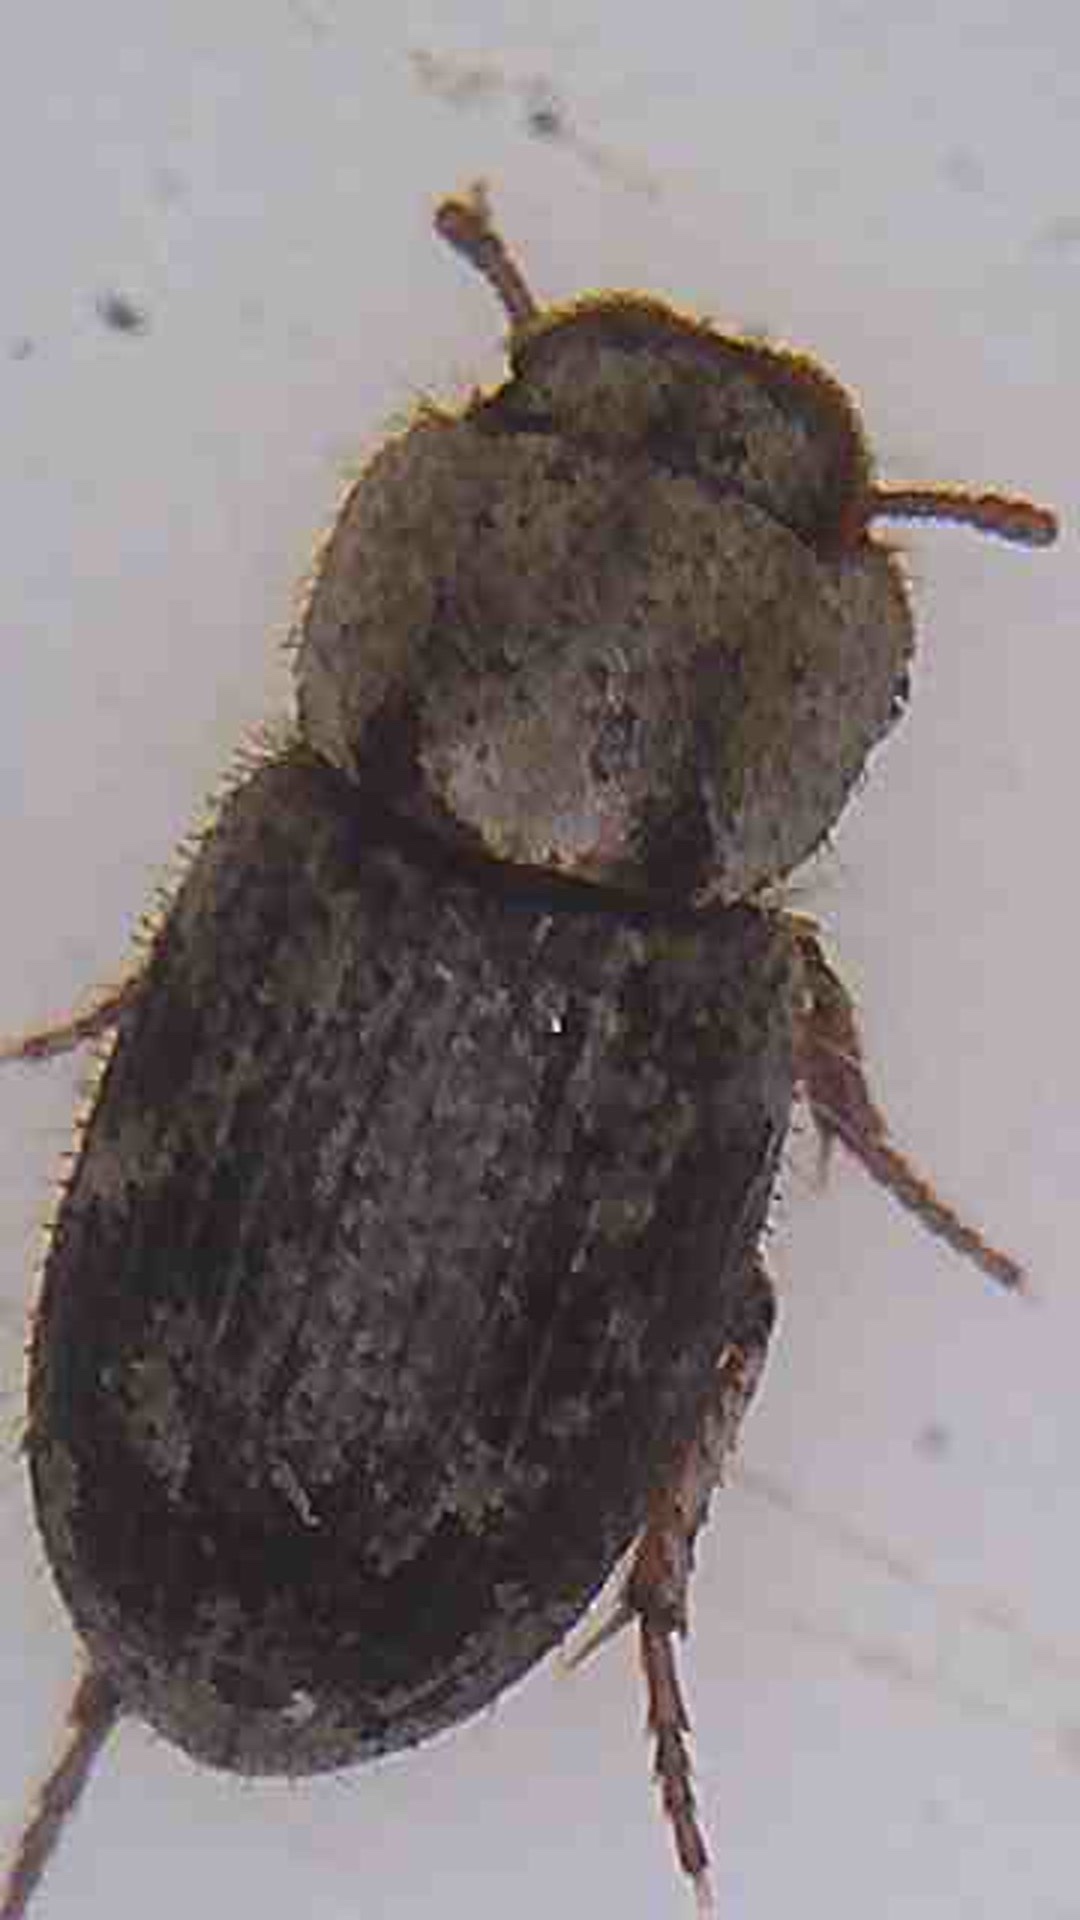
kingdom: Animalia
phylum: Arthropoda
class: Insecta
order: Coleoptera
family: Tenebrionidae
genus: Actizeta
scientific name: Actizeta fusca
